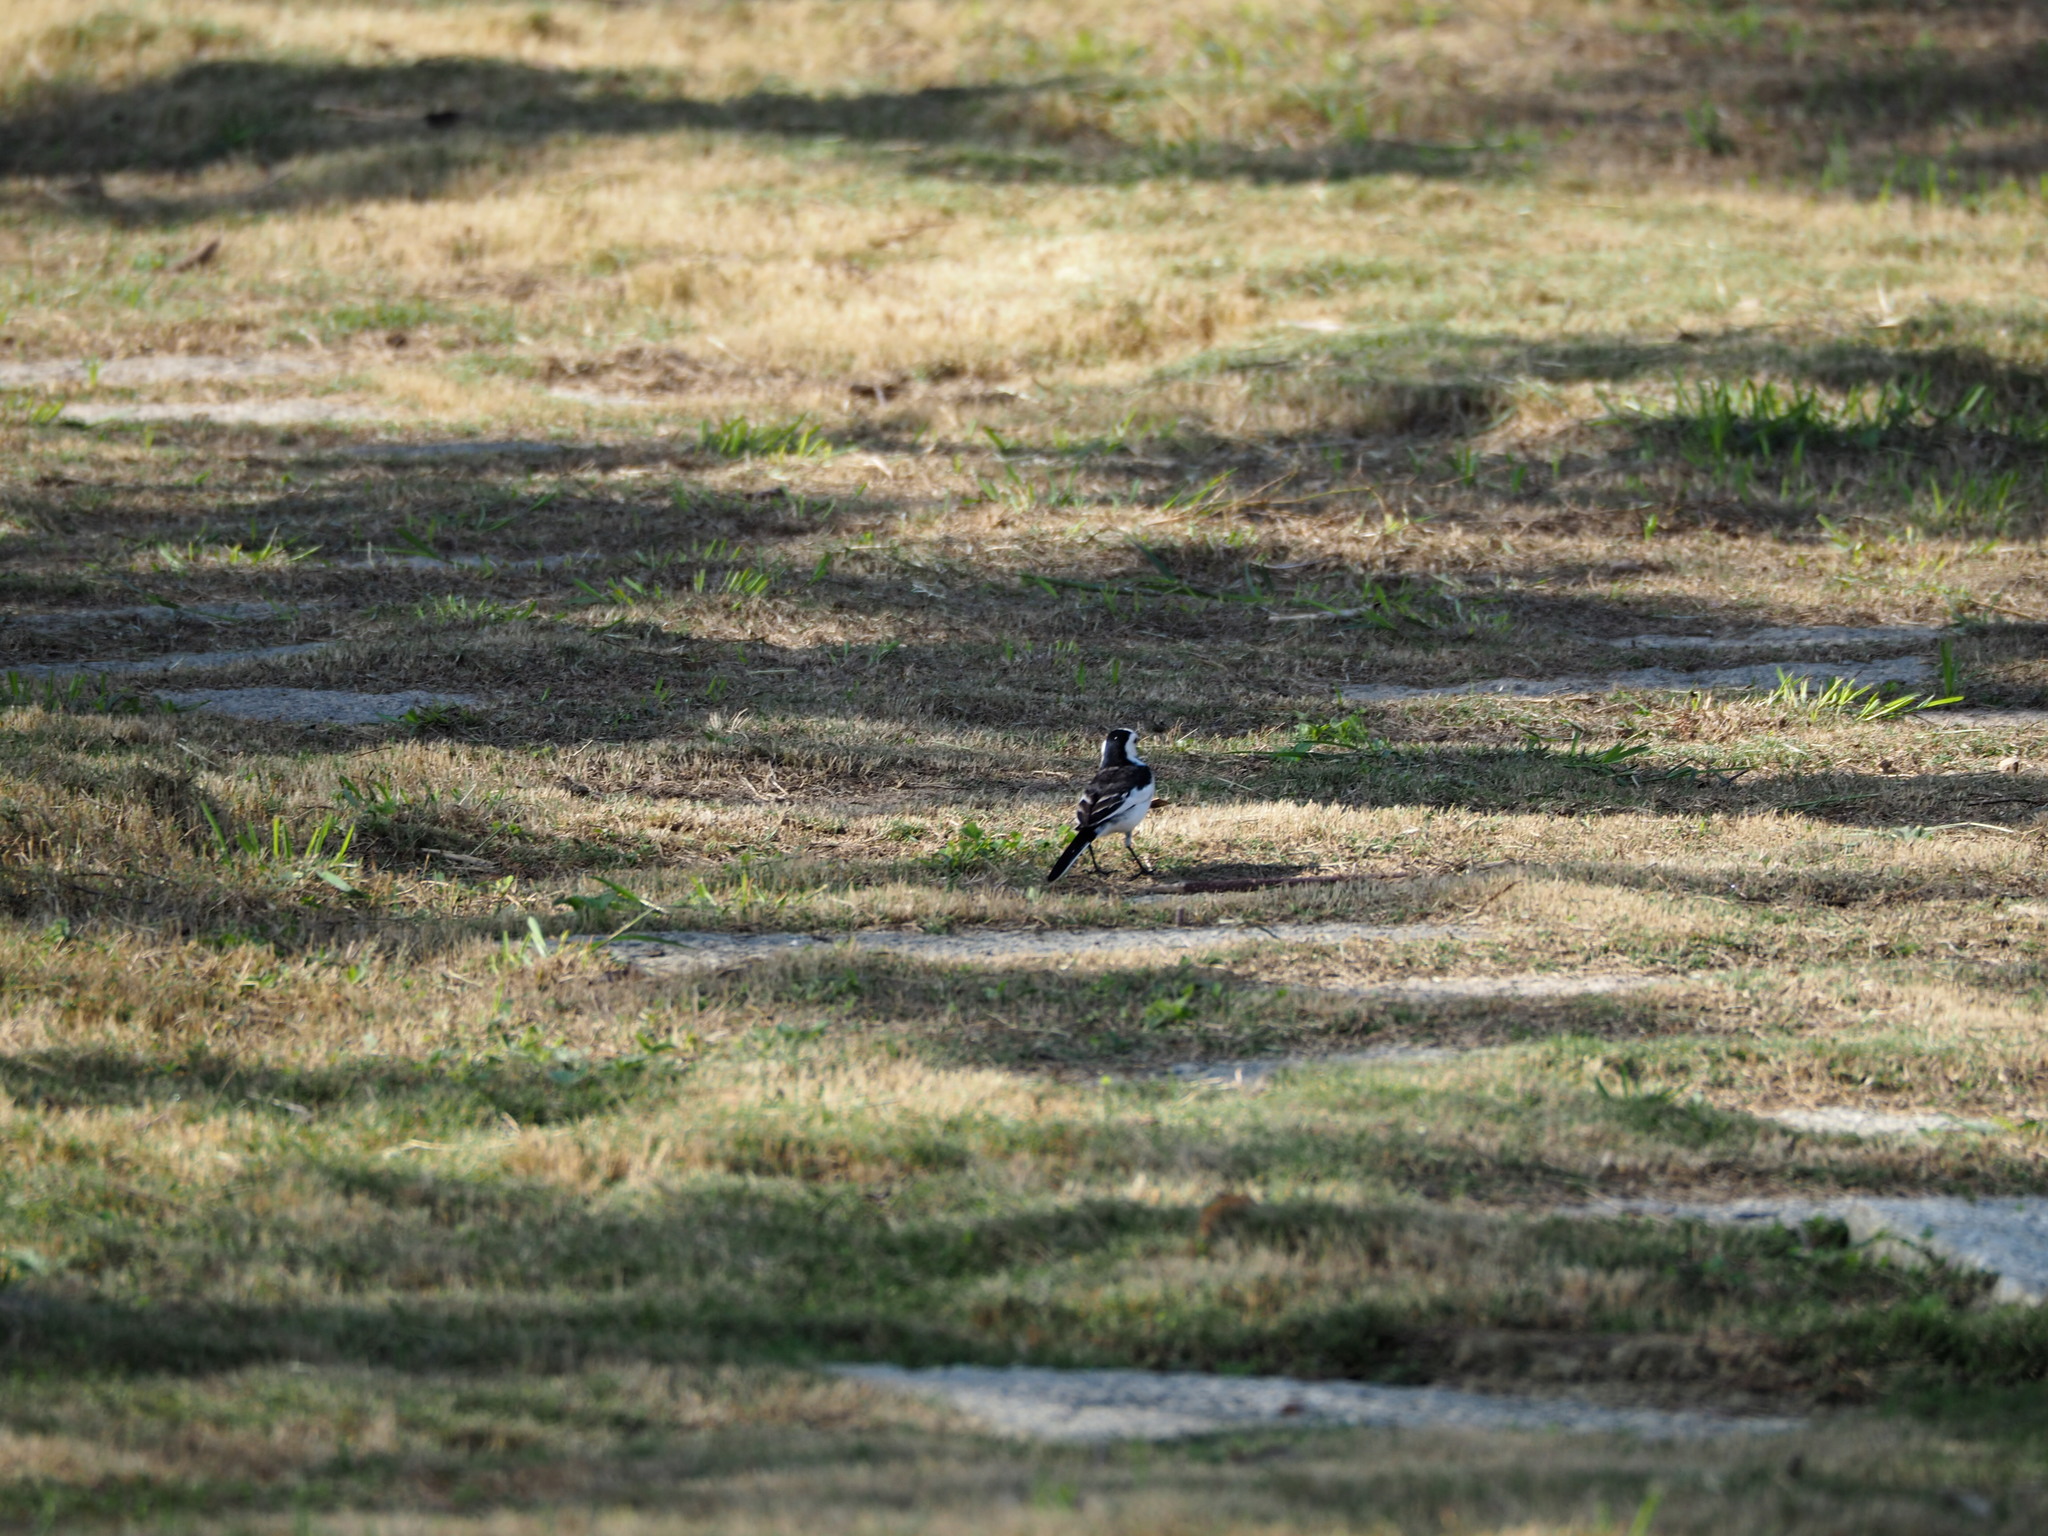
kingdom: Animalia
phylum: Chordata
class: Aves
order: Passeriformes
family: Motacillidae
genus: Motacilla
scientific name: Motacilla alba
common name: White wagtail
